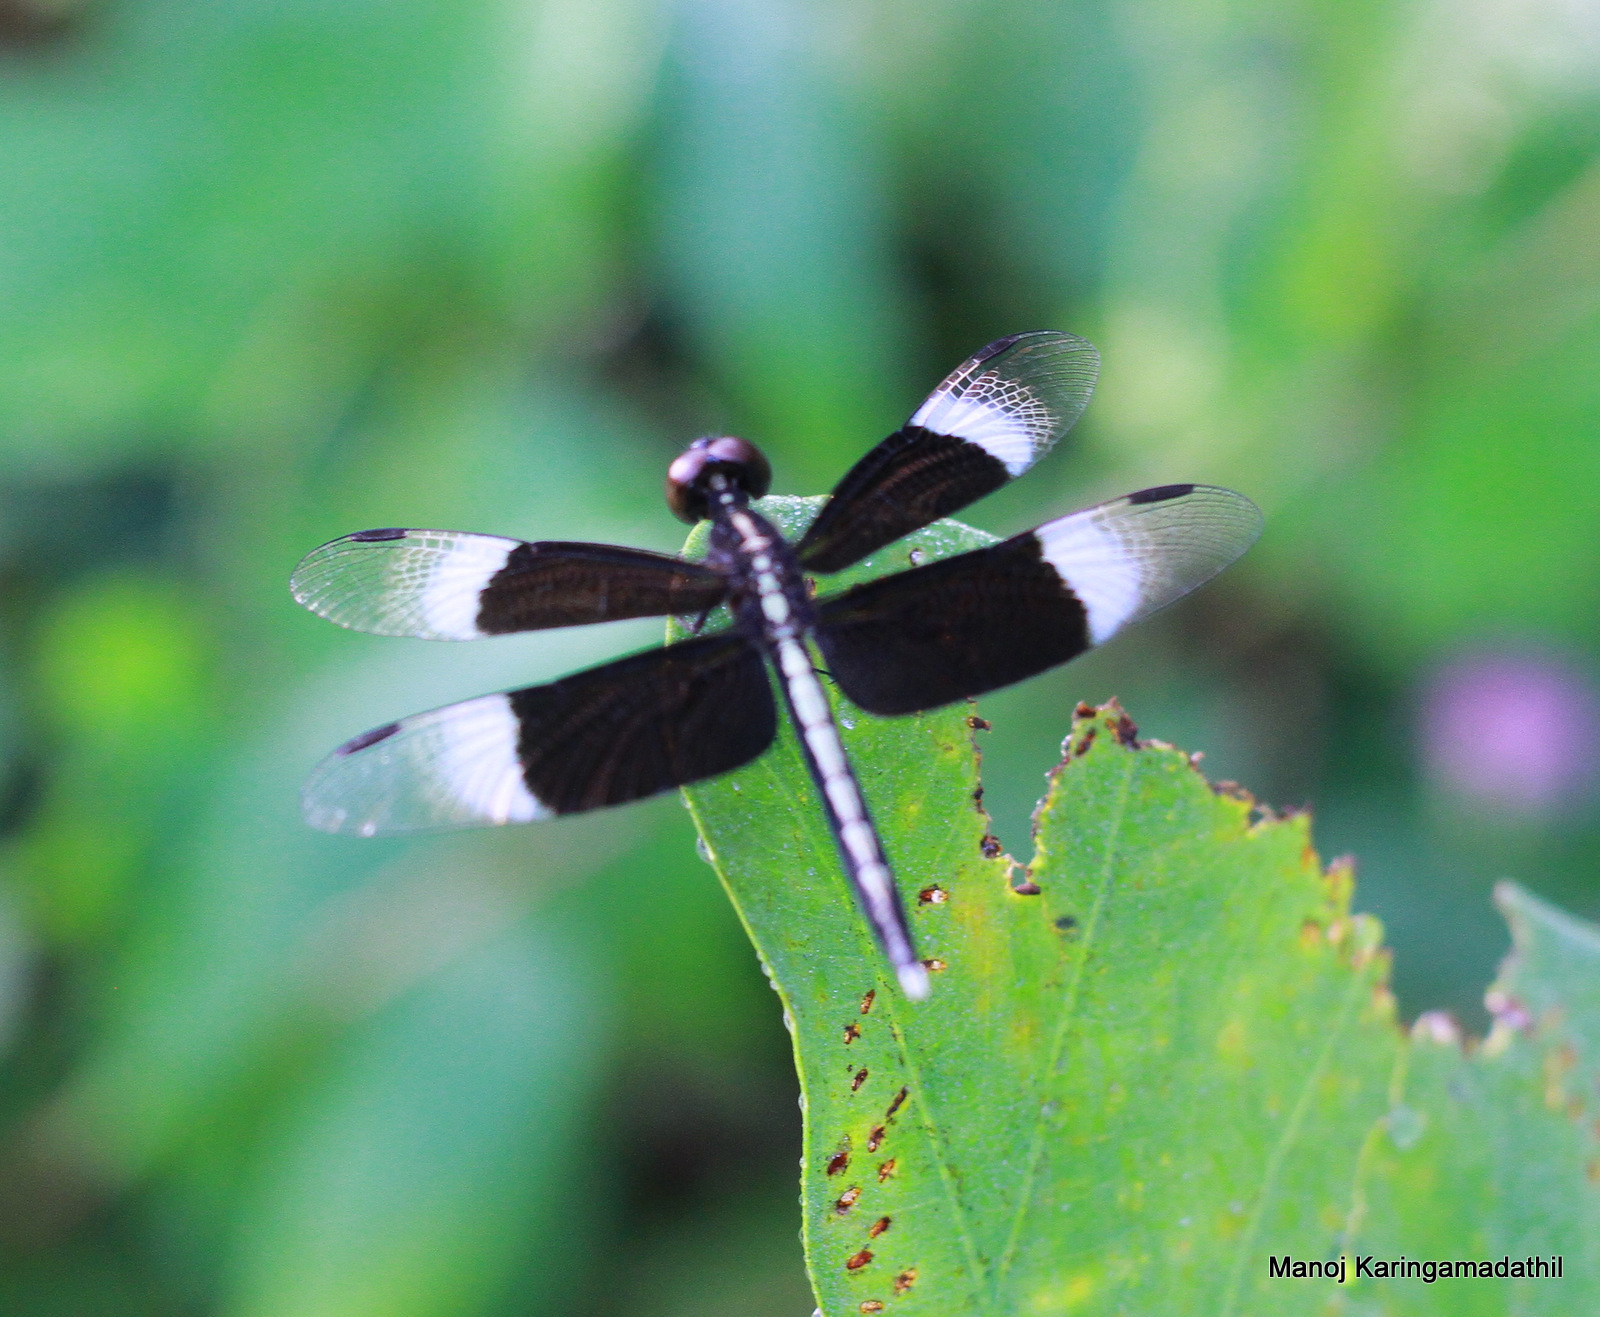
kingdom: Animalia
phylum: Arthropoda
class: Insecta
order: Odonata
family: Libellulidae
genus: Neurothemis
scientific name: Neurothemis tullia
